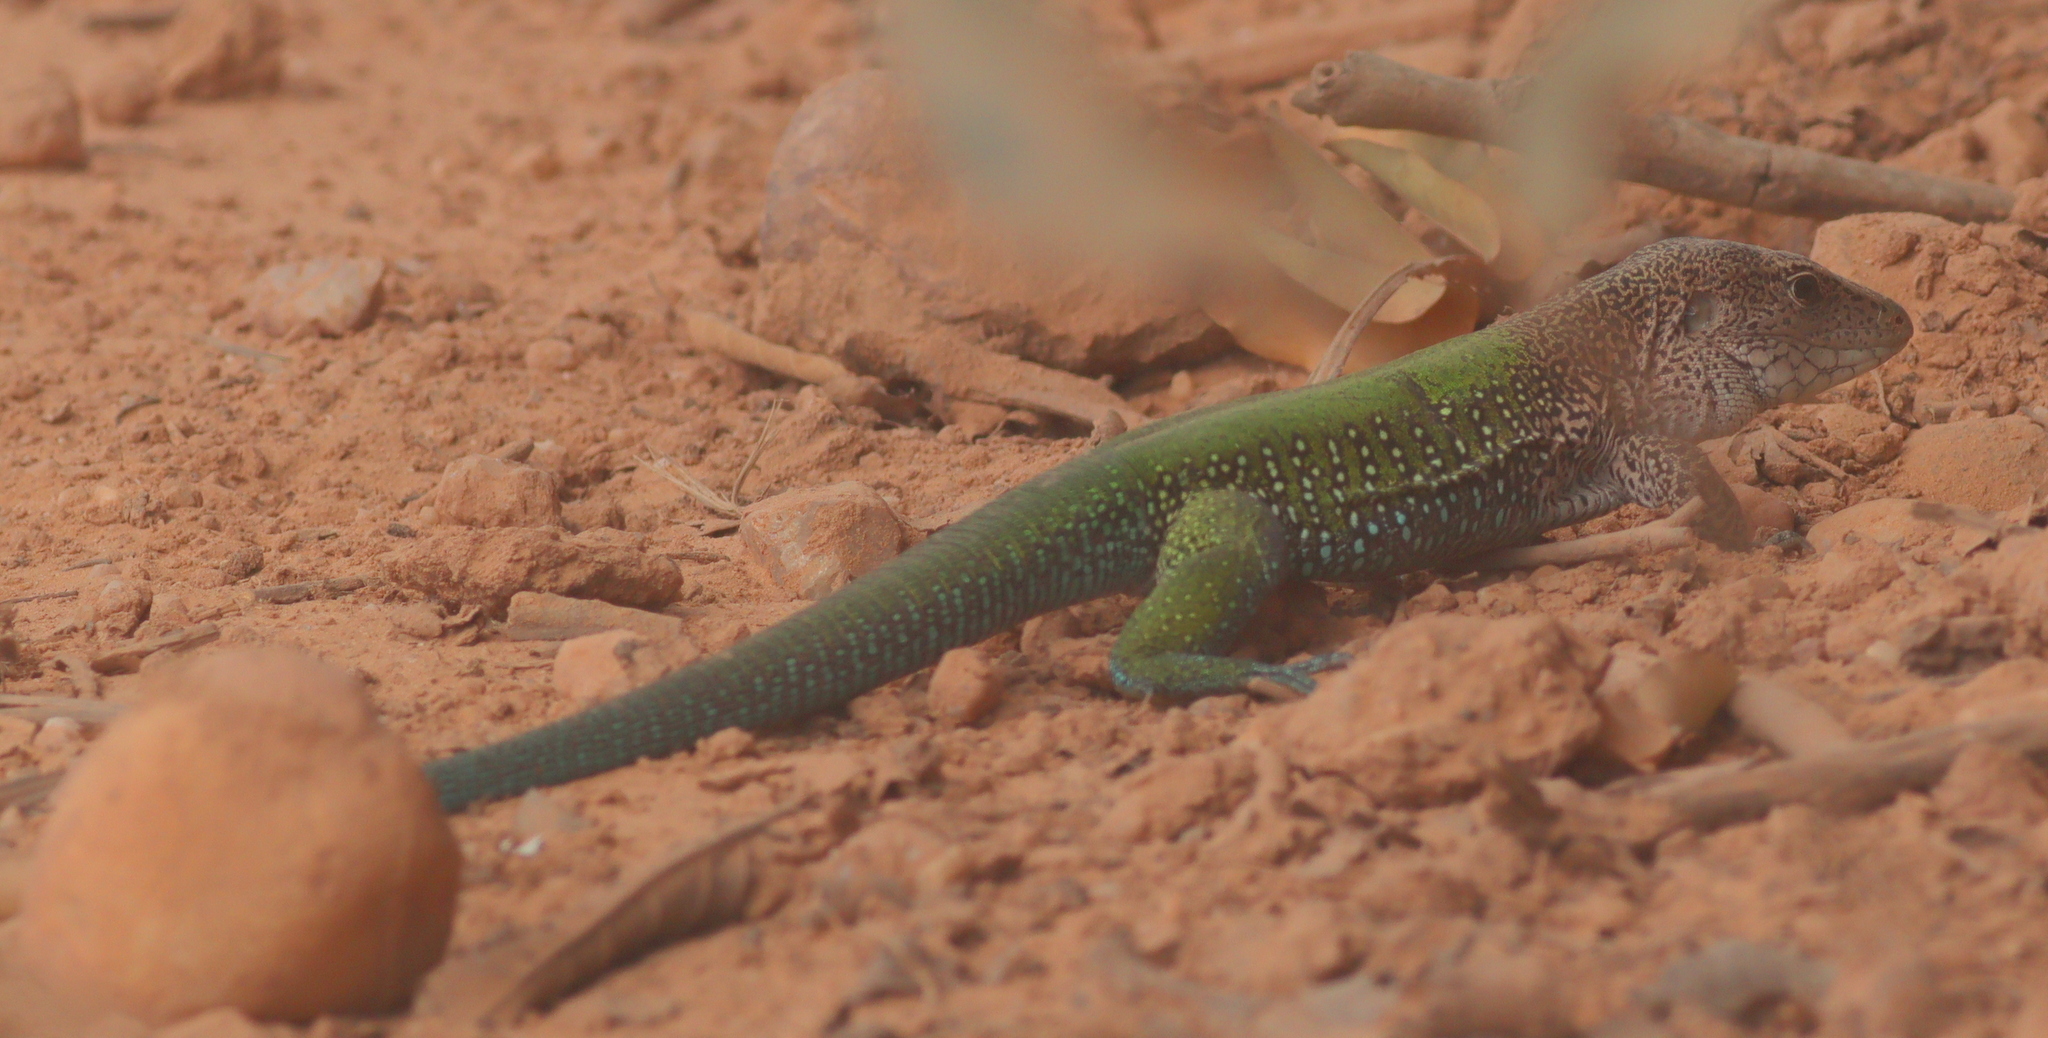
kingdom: Animalia
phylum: Chordata
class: Squamata
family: Teiidae
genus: Ameiva
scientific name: Ameiva ameiva
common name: Giant ameiva
